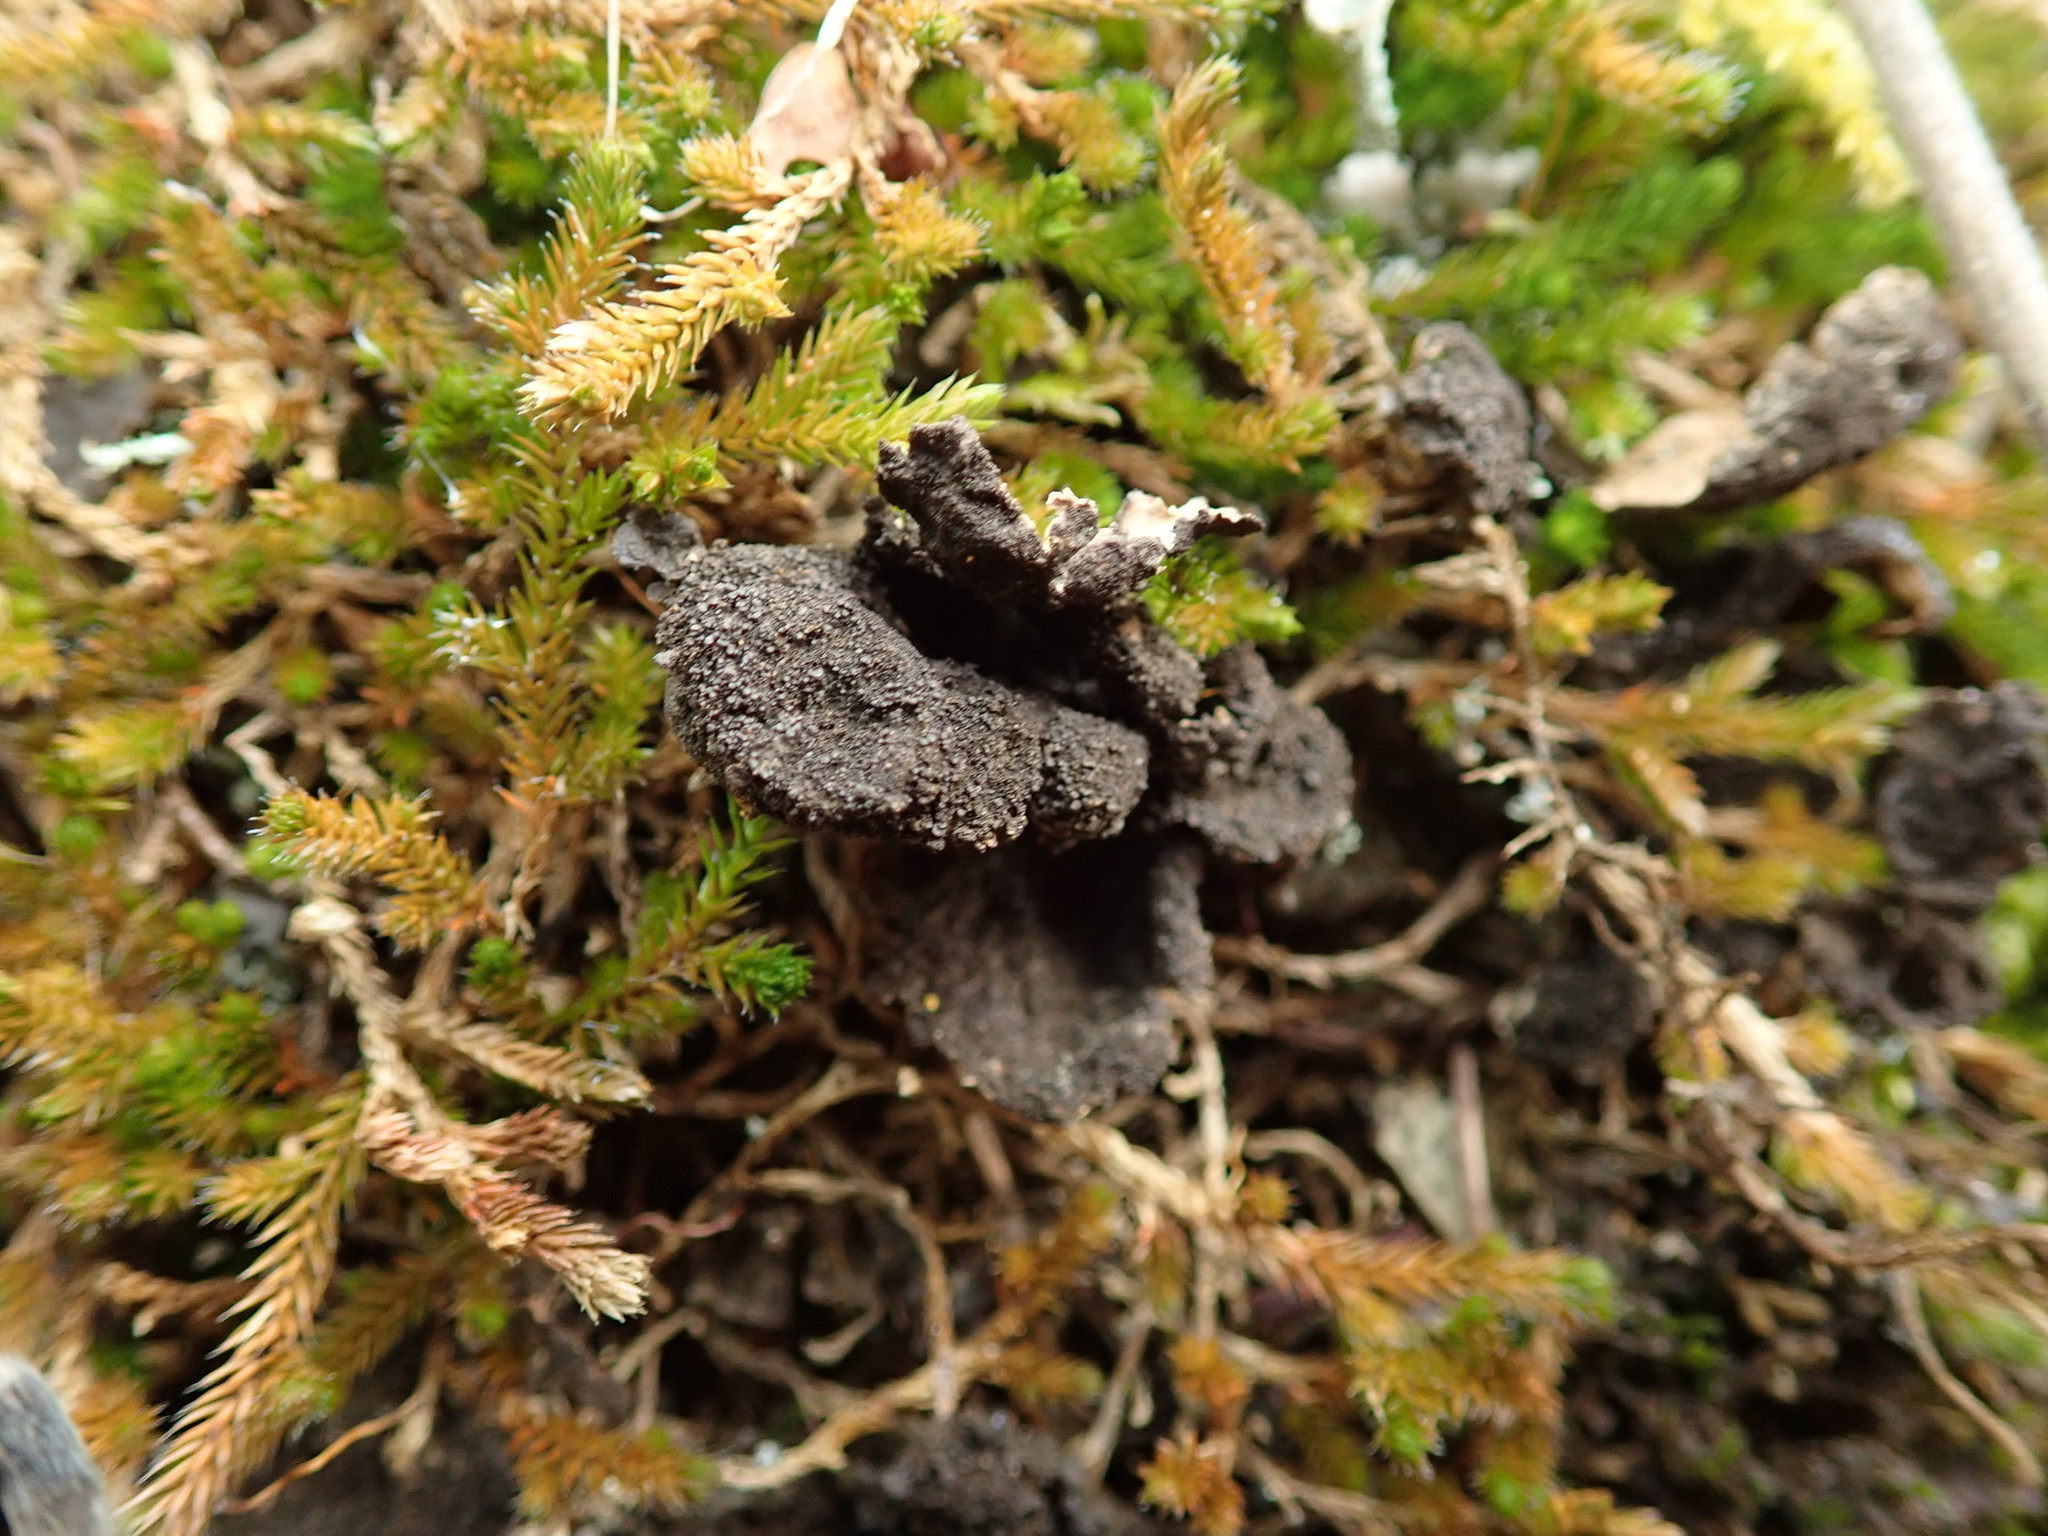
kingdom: Fungi
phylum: Ascomycota
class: Lecanoromycetes
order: Peltigerales
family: Lobariaceae
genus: Sticta
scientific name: Sticta fuliginosa
